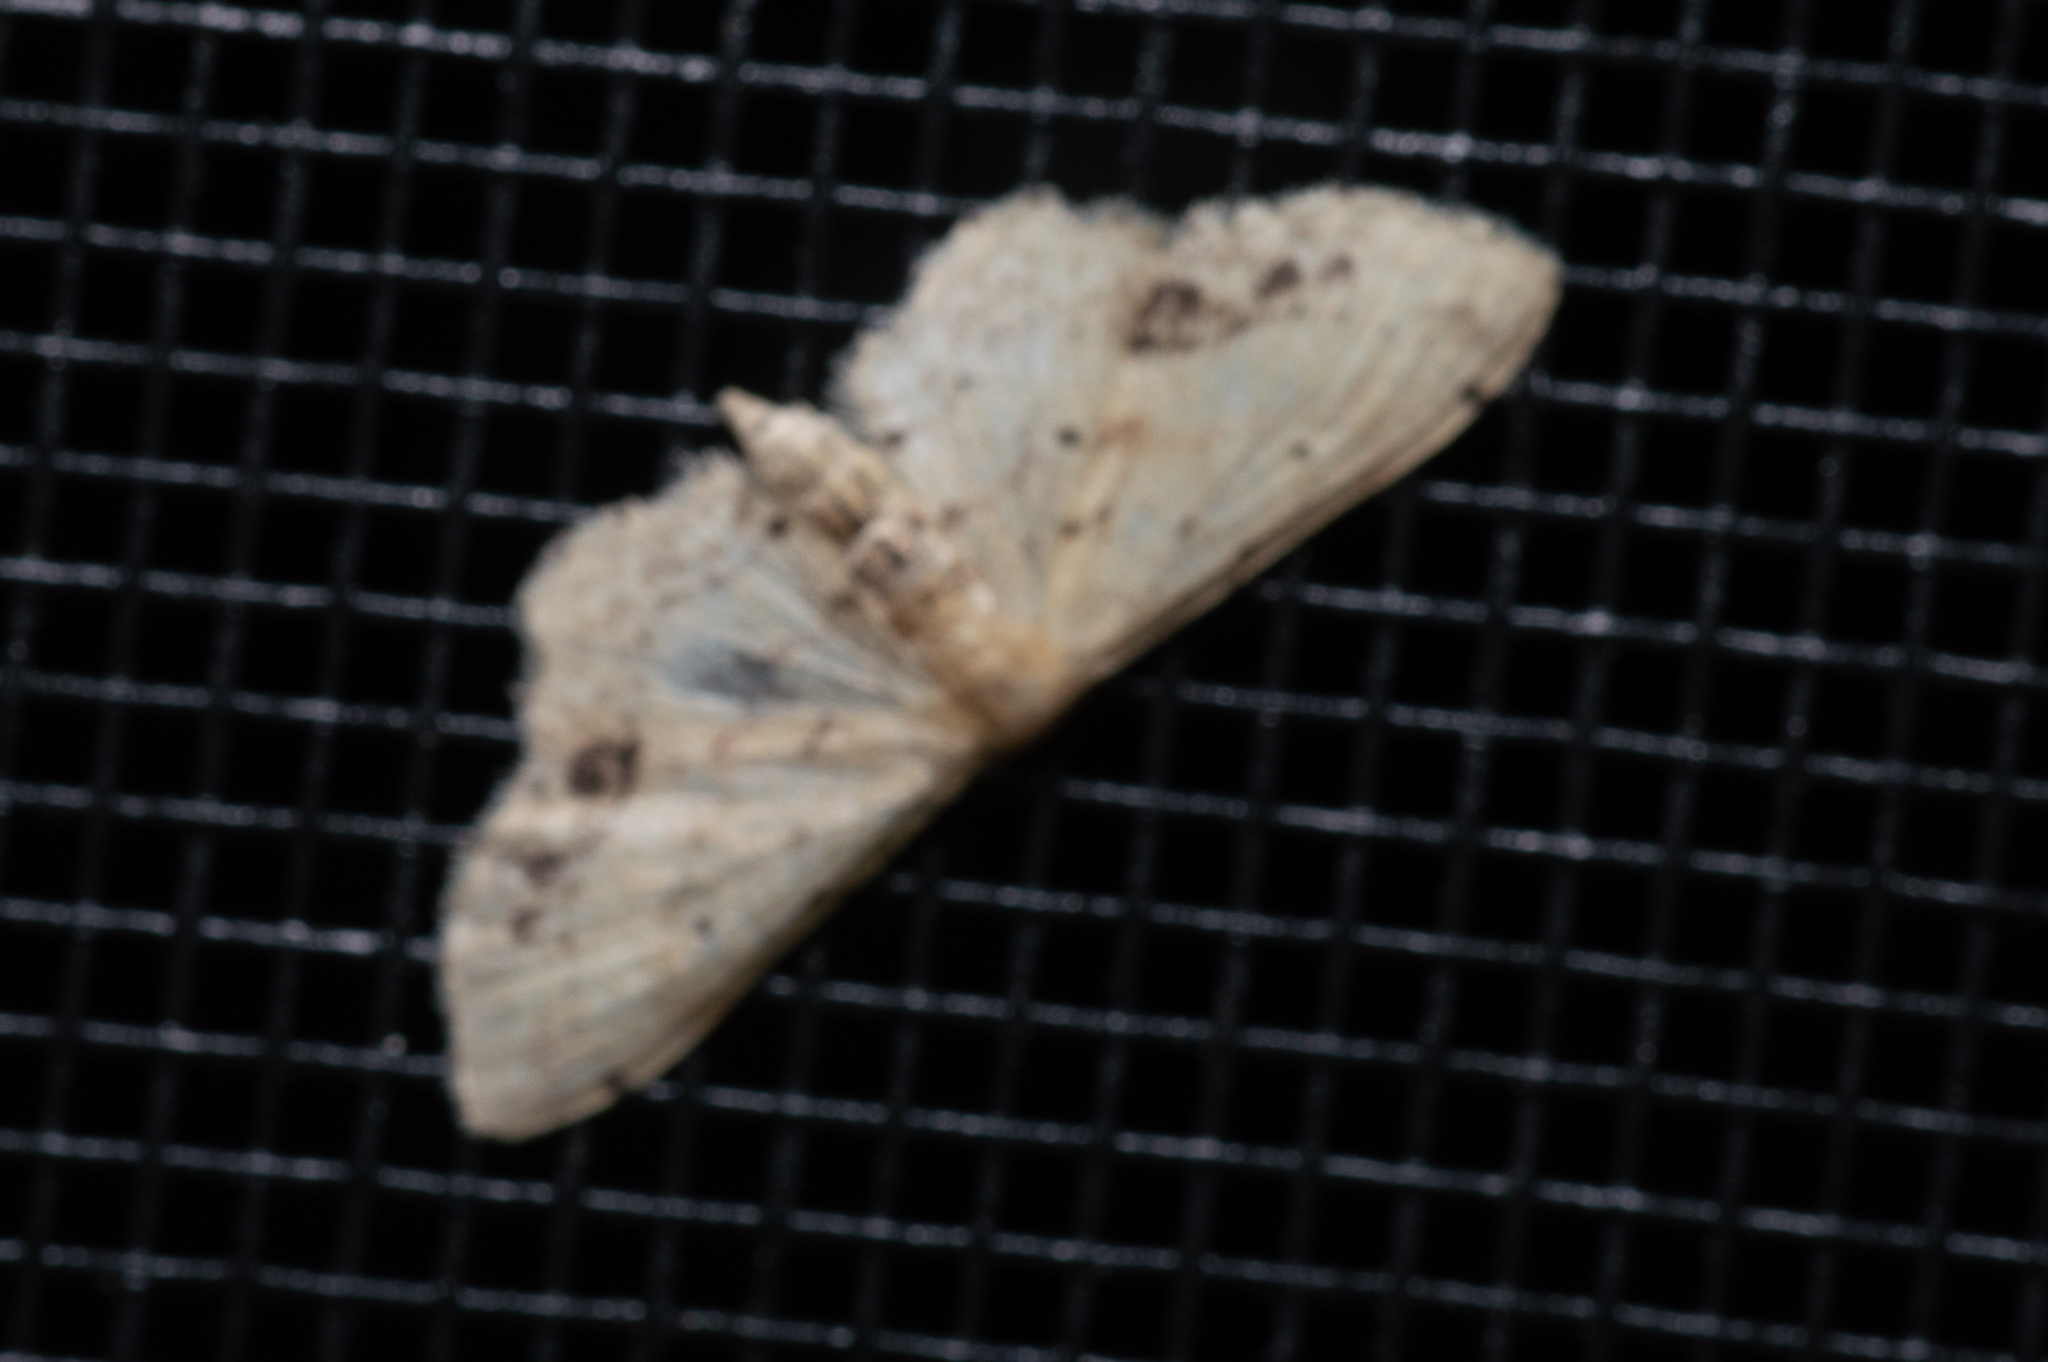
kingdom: Animalia
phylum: Arthropoda
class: Insecta
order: Lepidoptera
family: Geometridae
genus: Idaea
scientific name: Idaea dimidiata
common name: Single-dotted wave
